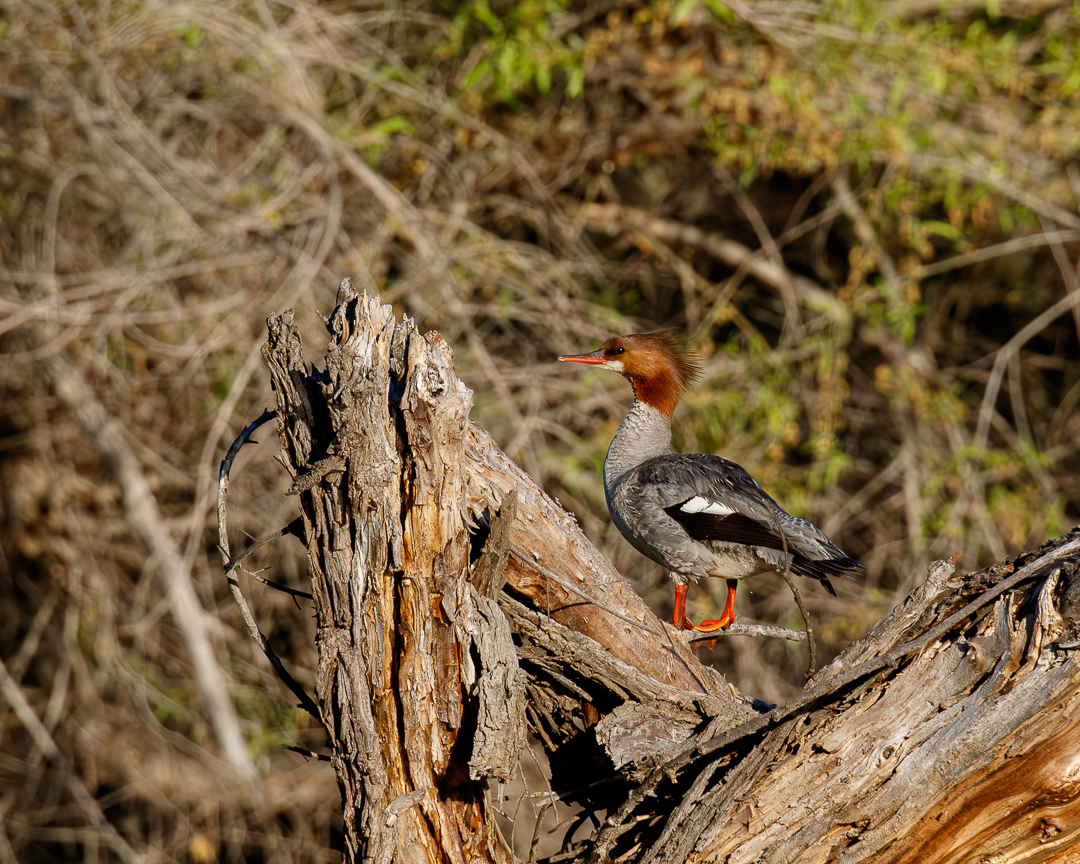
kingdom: Animalia
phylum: Chordata
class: Aves
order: Anseriformes
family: Anatidae
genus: Mergus
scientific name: Mergus merganser
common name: Common merganser
